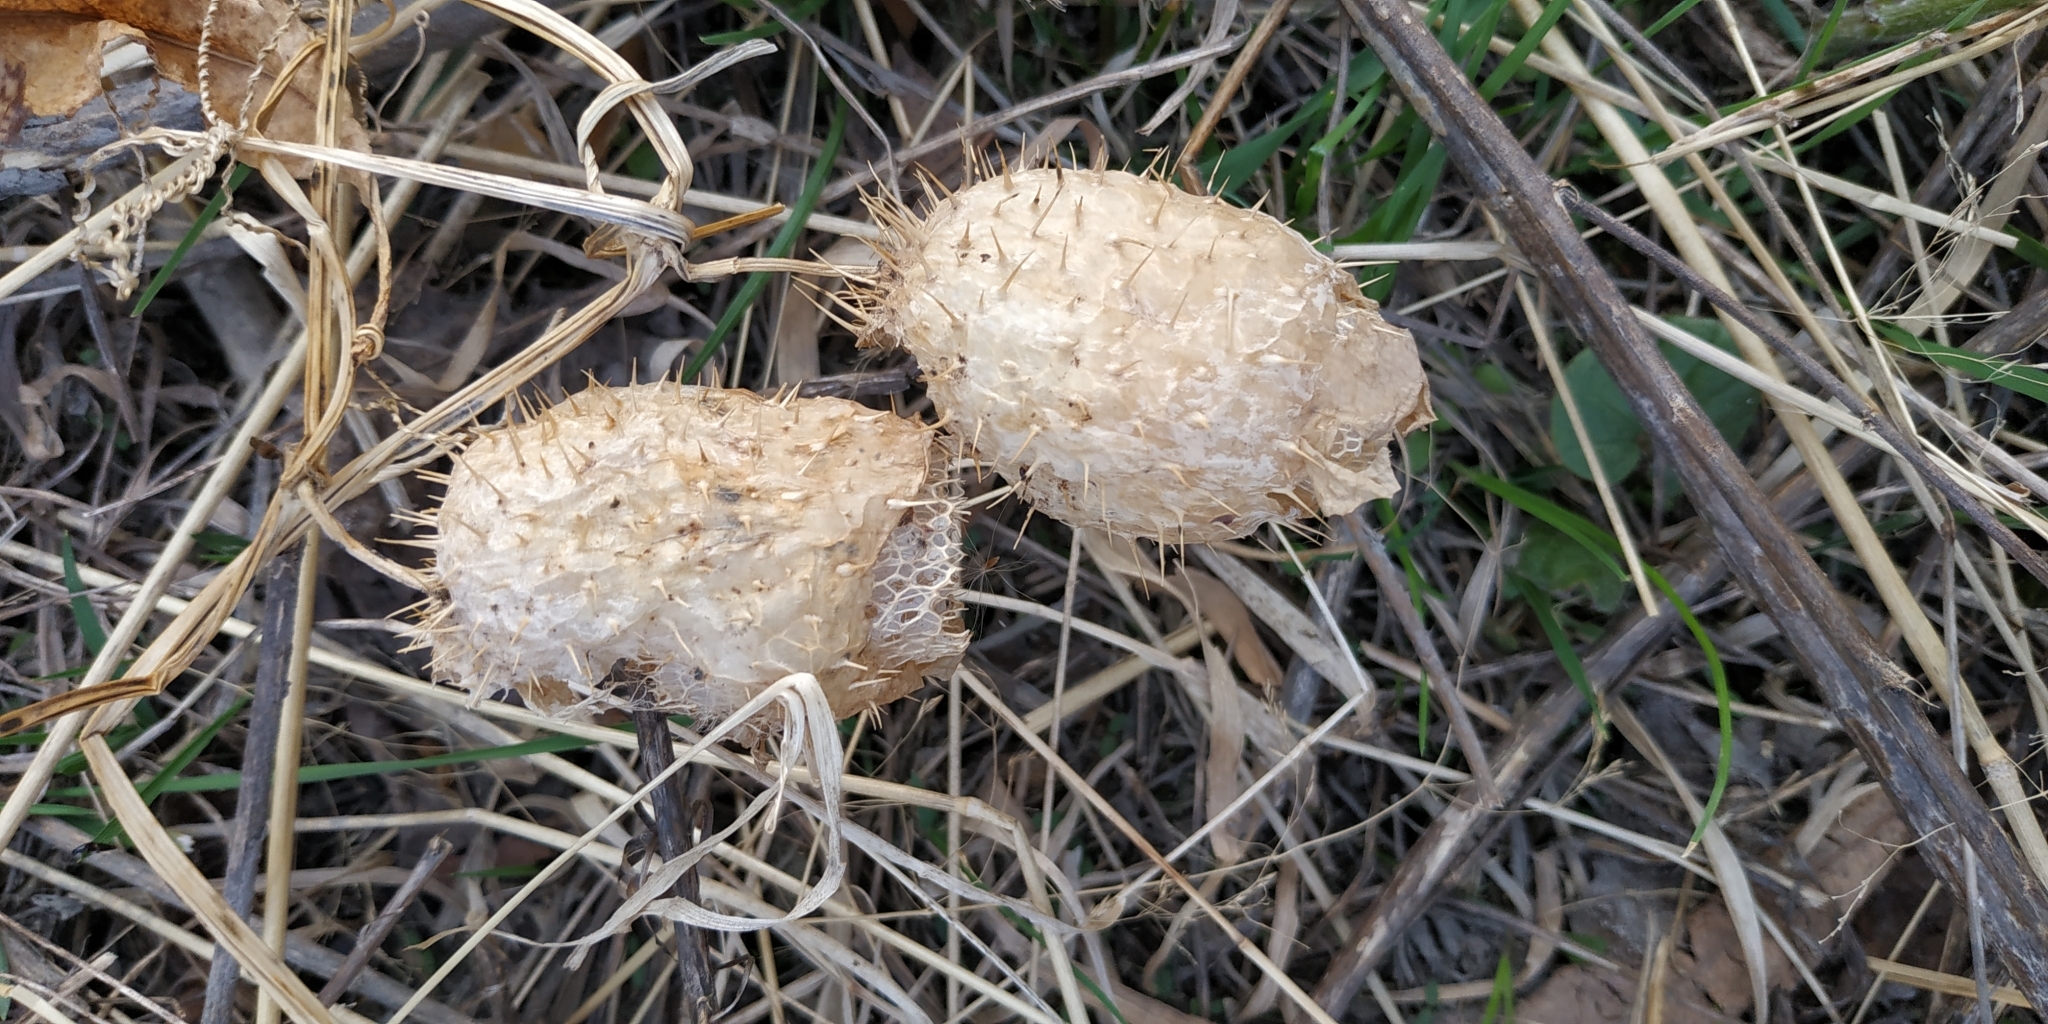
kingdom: Plantae
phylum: Tracheophyta
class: Magnoliopsida
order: Cucurbitales
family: Cucurbitaceae
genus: Echinocystis
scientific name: Echinocystis lobata
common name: Wild cucumber
